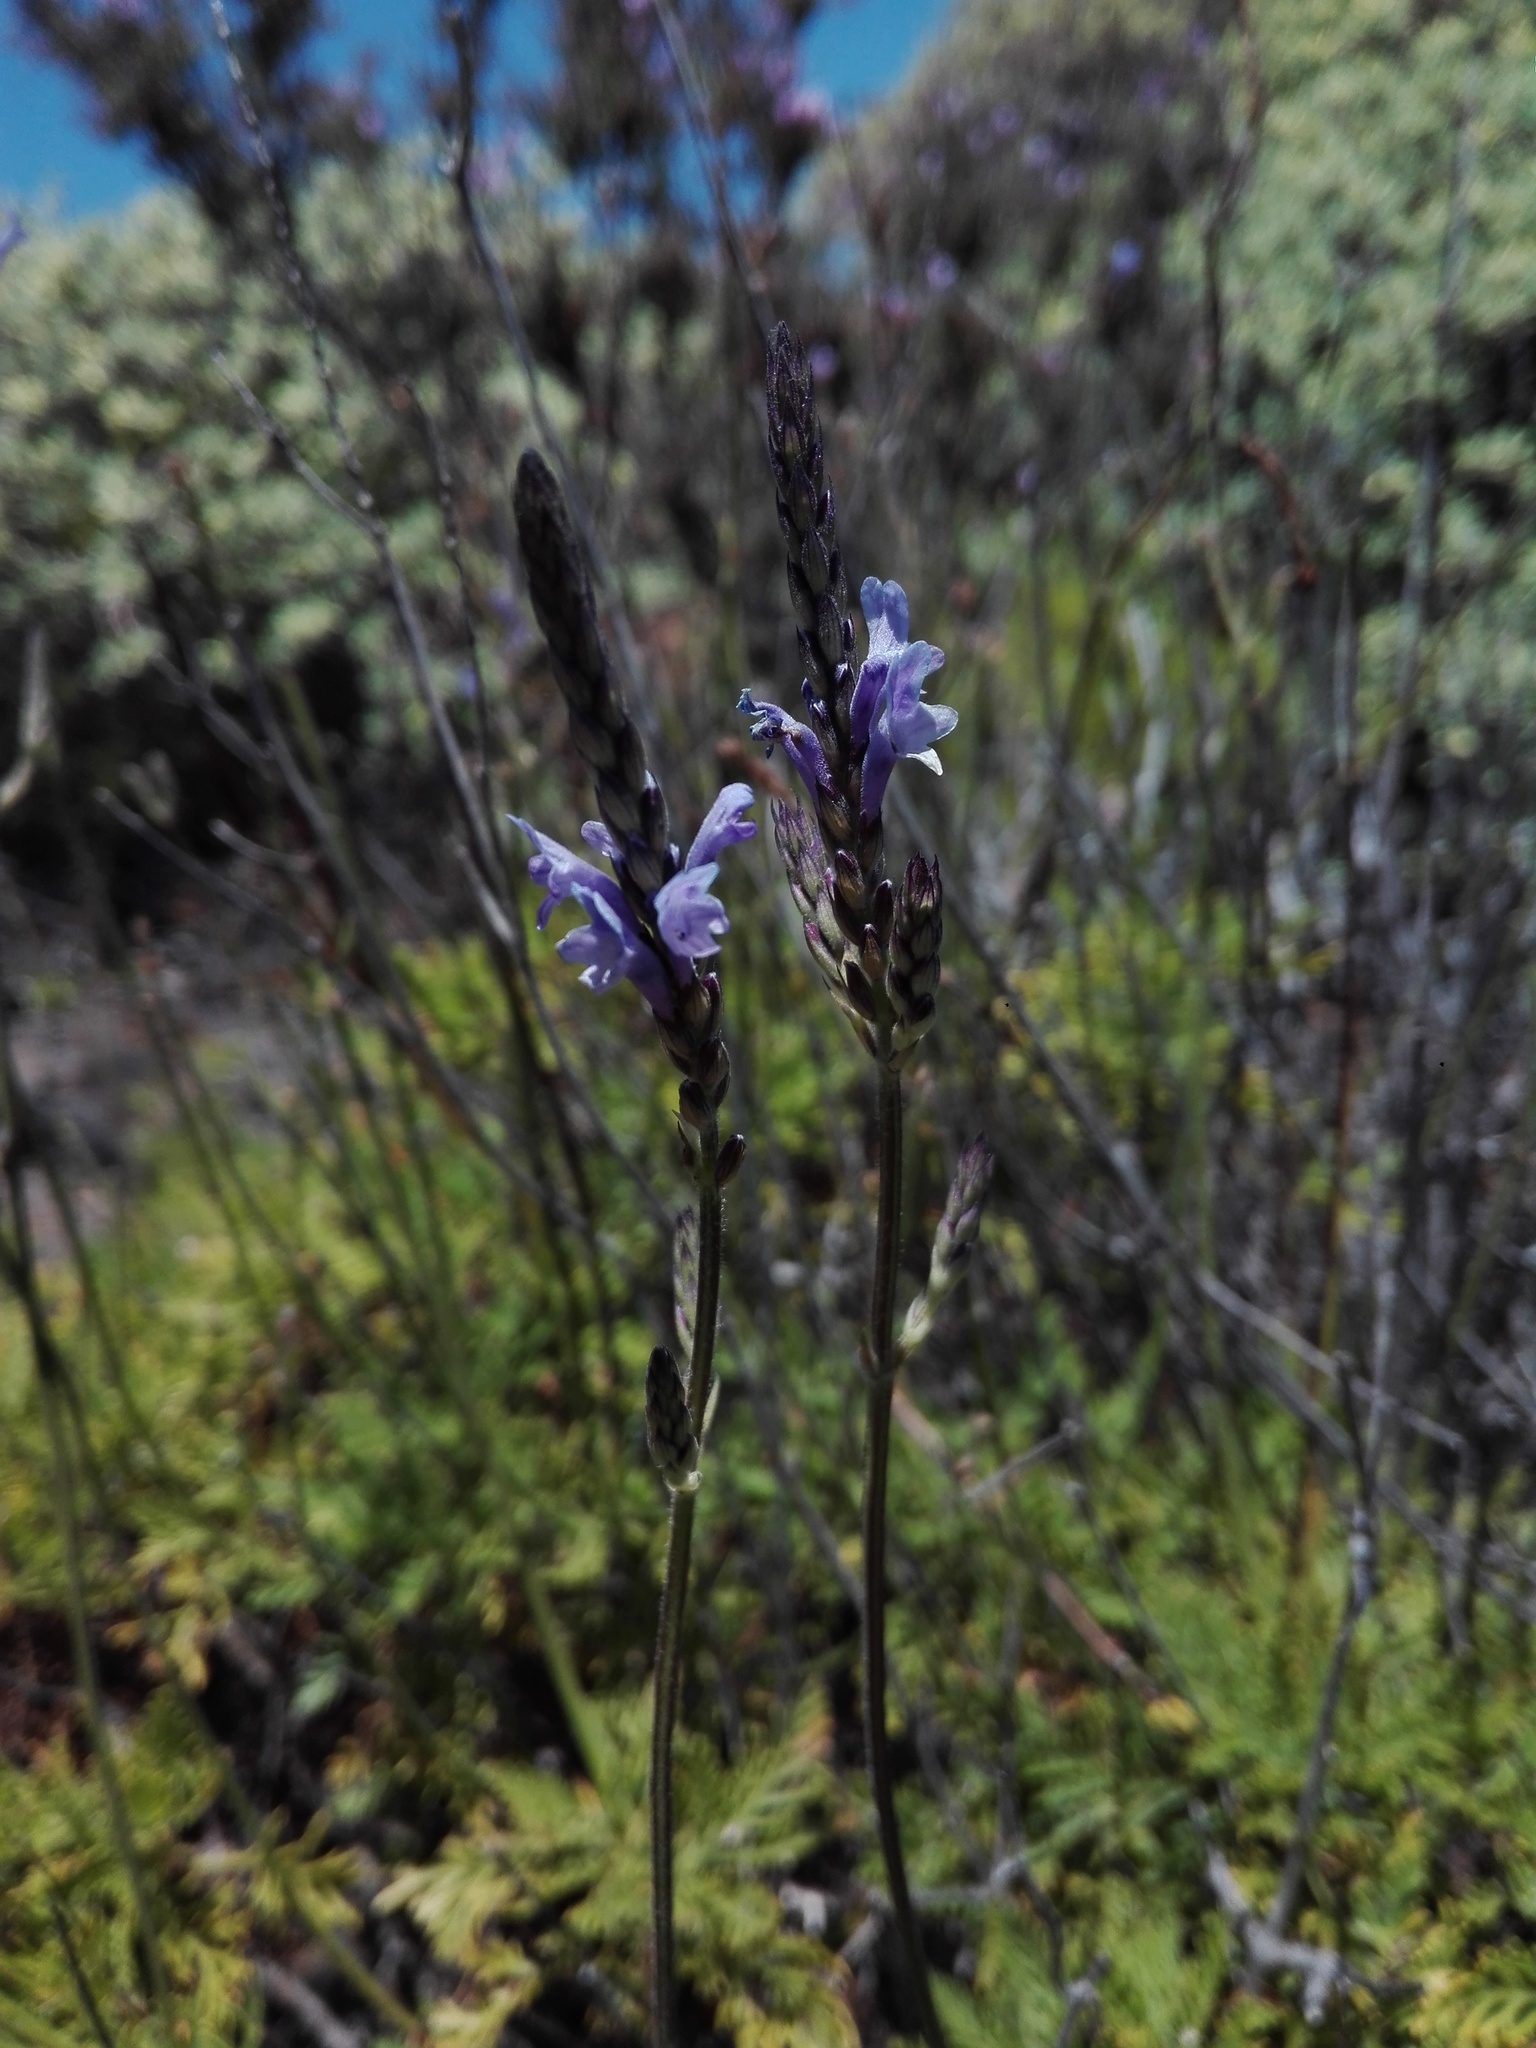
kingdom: Plantae
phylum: Tracheophyta
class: Magnoliopsida
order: Lamiales
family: Lamiaceae
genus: Lavandula
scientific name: Lavandula canariensis
